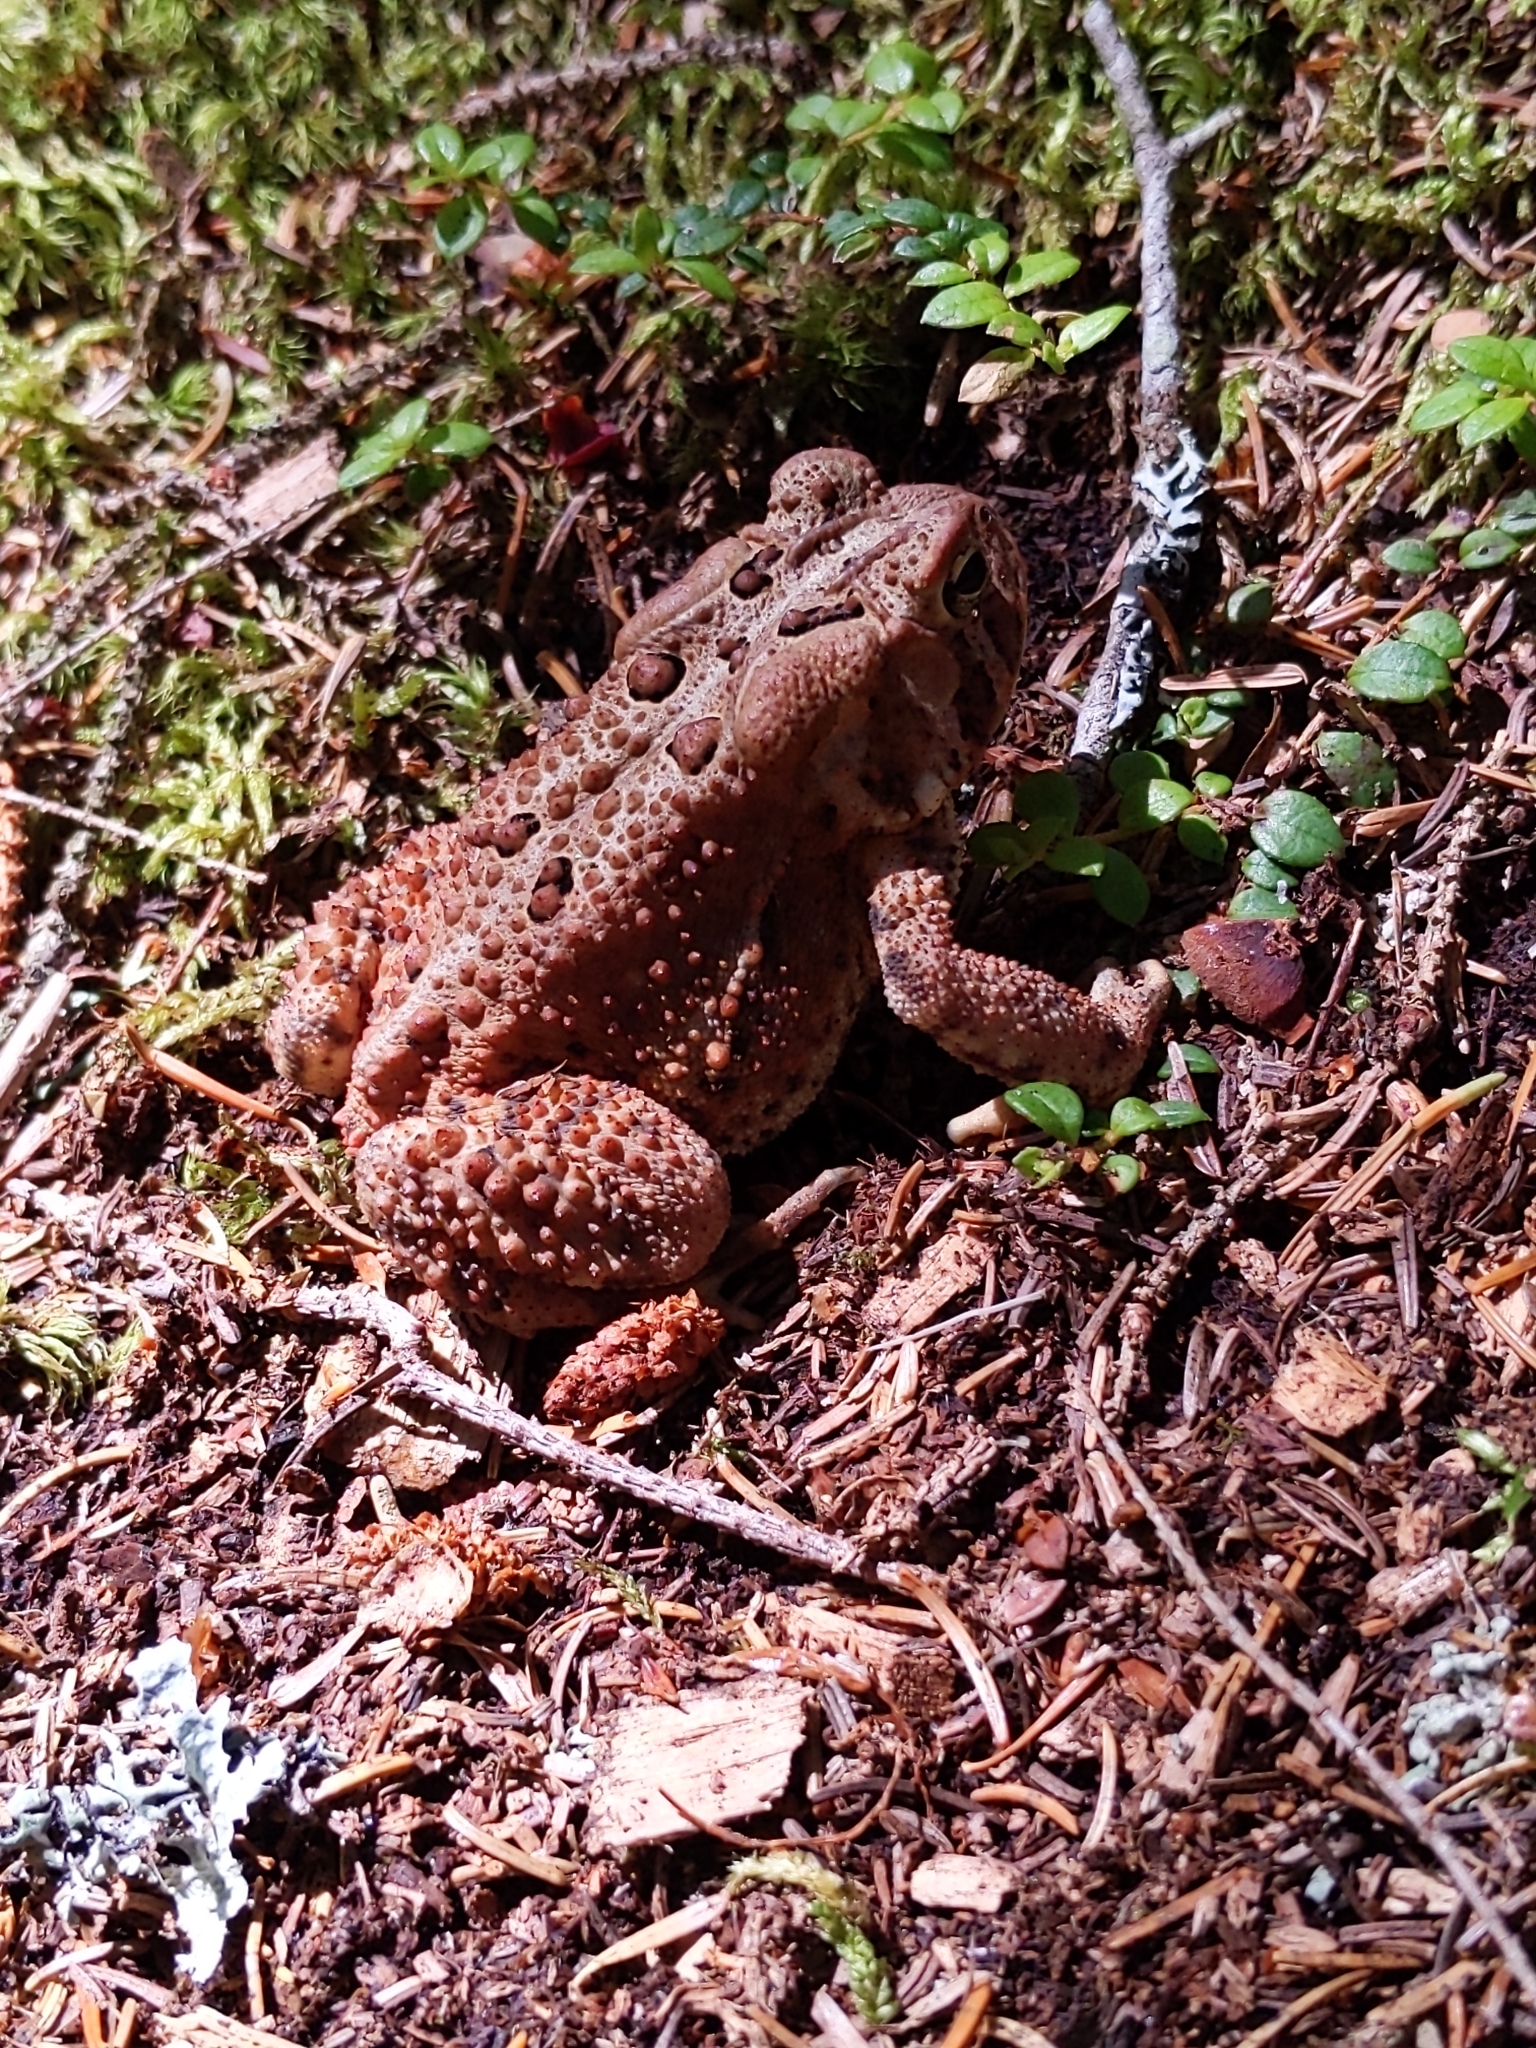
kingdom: Animalia
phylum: Chordata
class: Amphibia
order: Anura
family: Bufonidae
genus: Anaxyrus
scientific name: Anaxyrus americanus
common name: American toad
